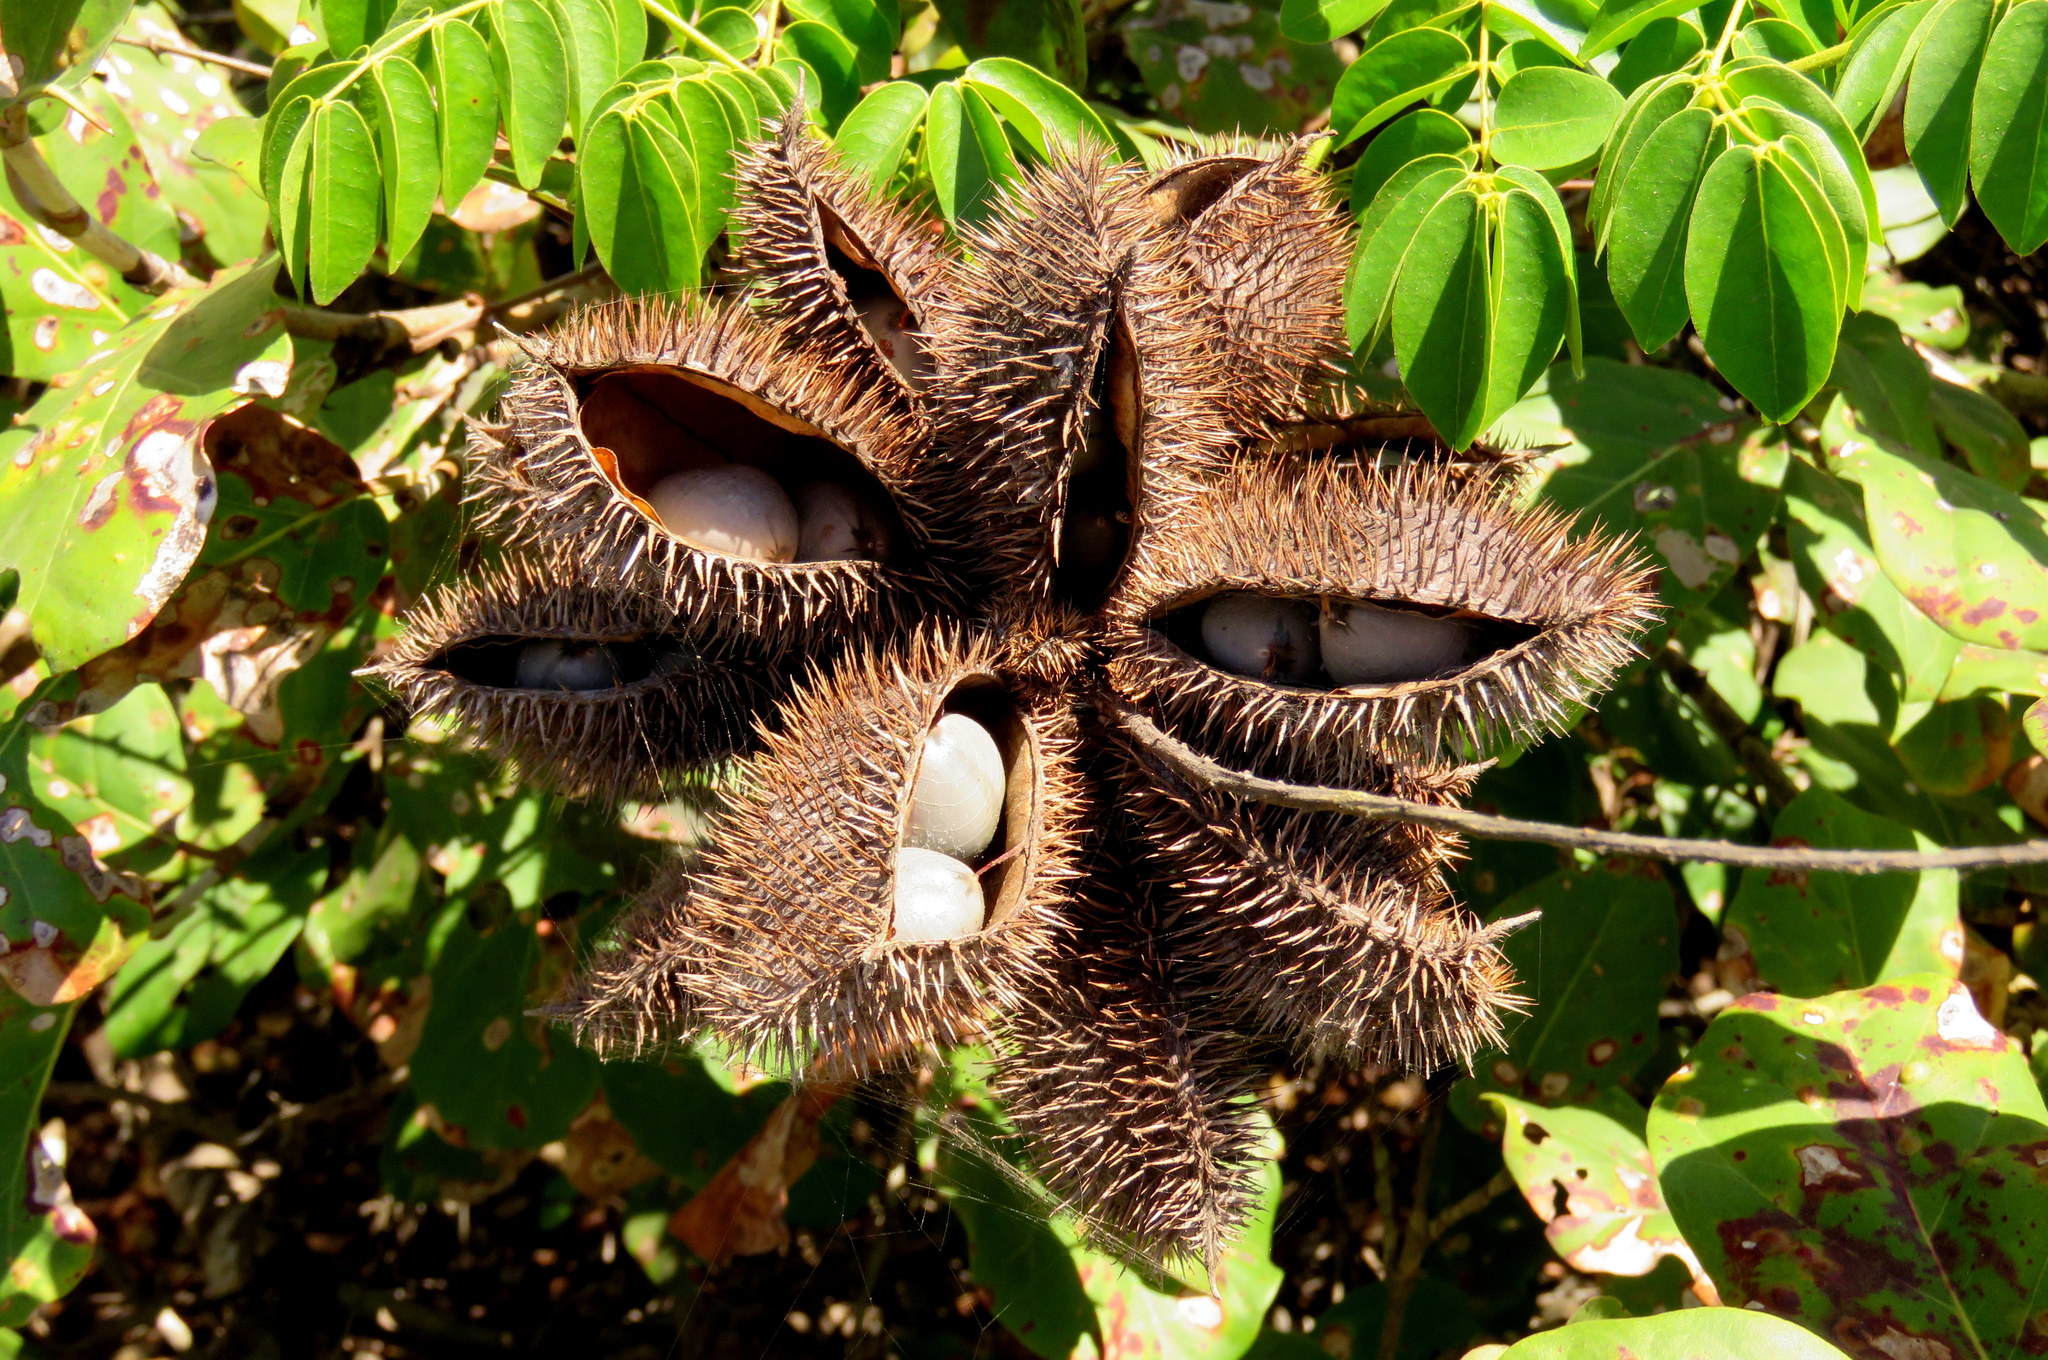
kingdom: Plantae
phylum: Tracheophyta
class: Magnoliopsida
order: Fabales
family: Fabaceae
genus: Guilandina
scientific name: Guilandina bonduc
